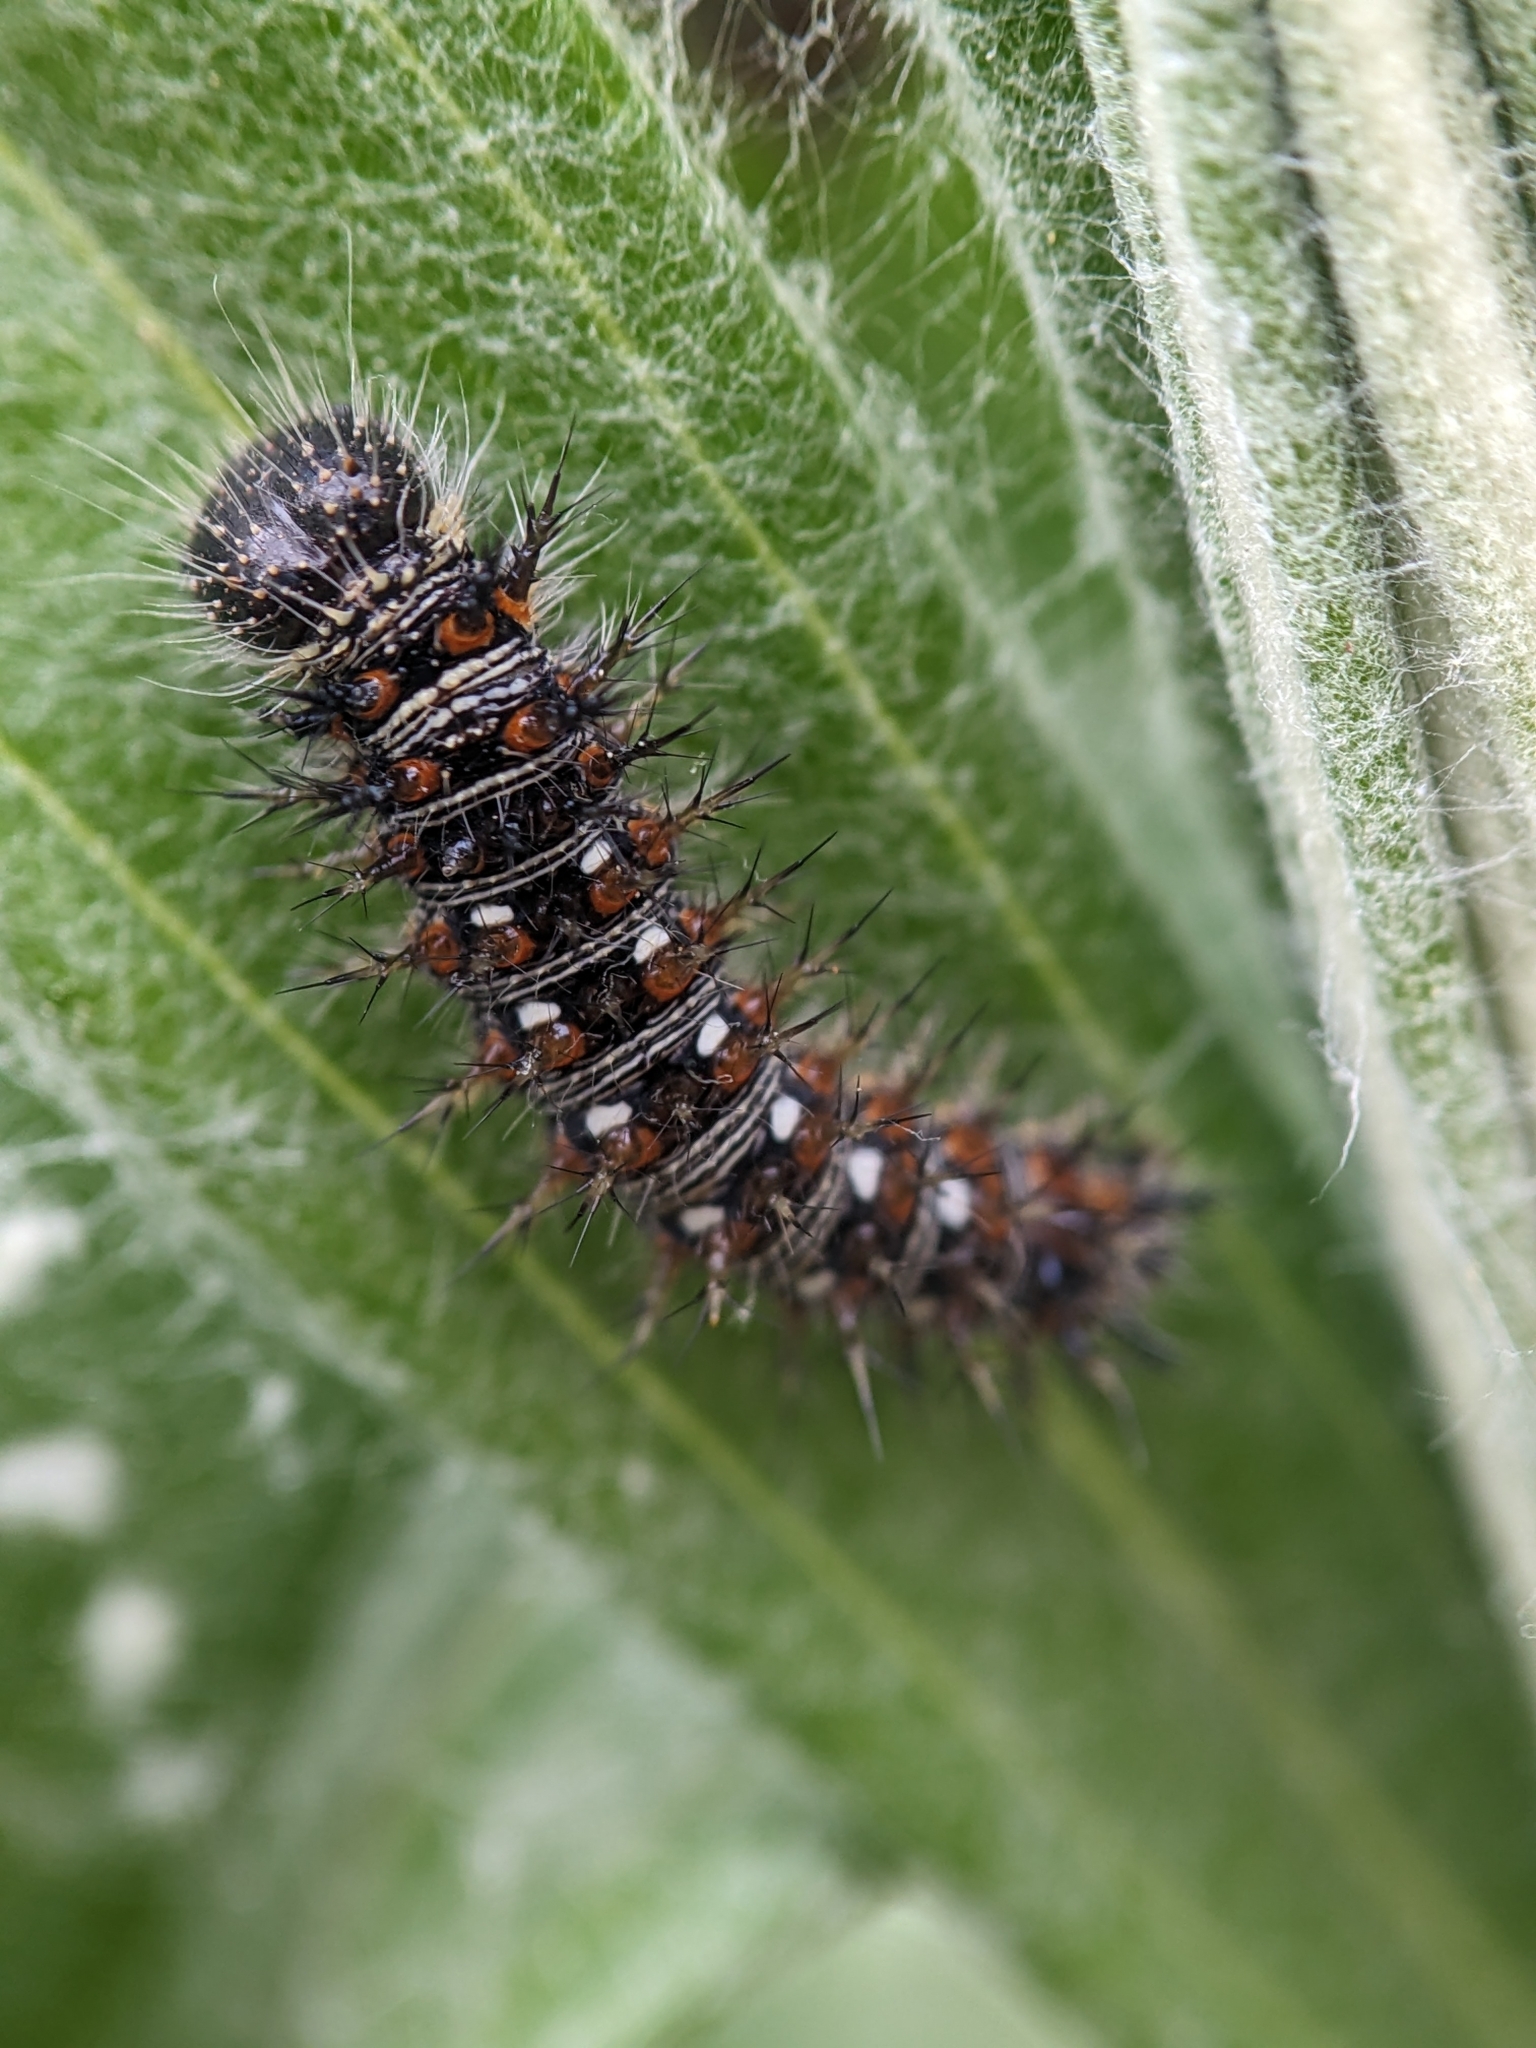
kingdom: Animalia
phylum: Arthropoda
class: Insecta
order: Lepidoptera
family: Nymphalidae
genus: Vanessa
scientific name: Vanessa virginiensis
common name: American lady
